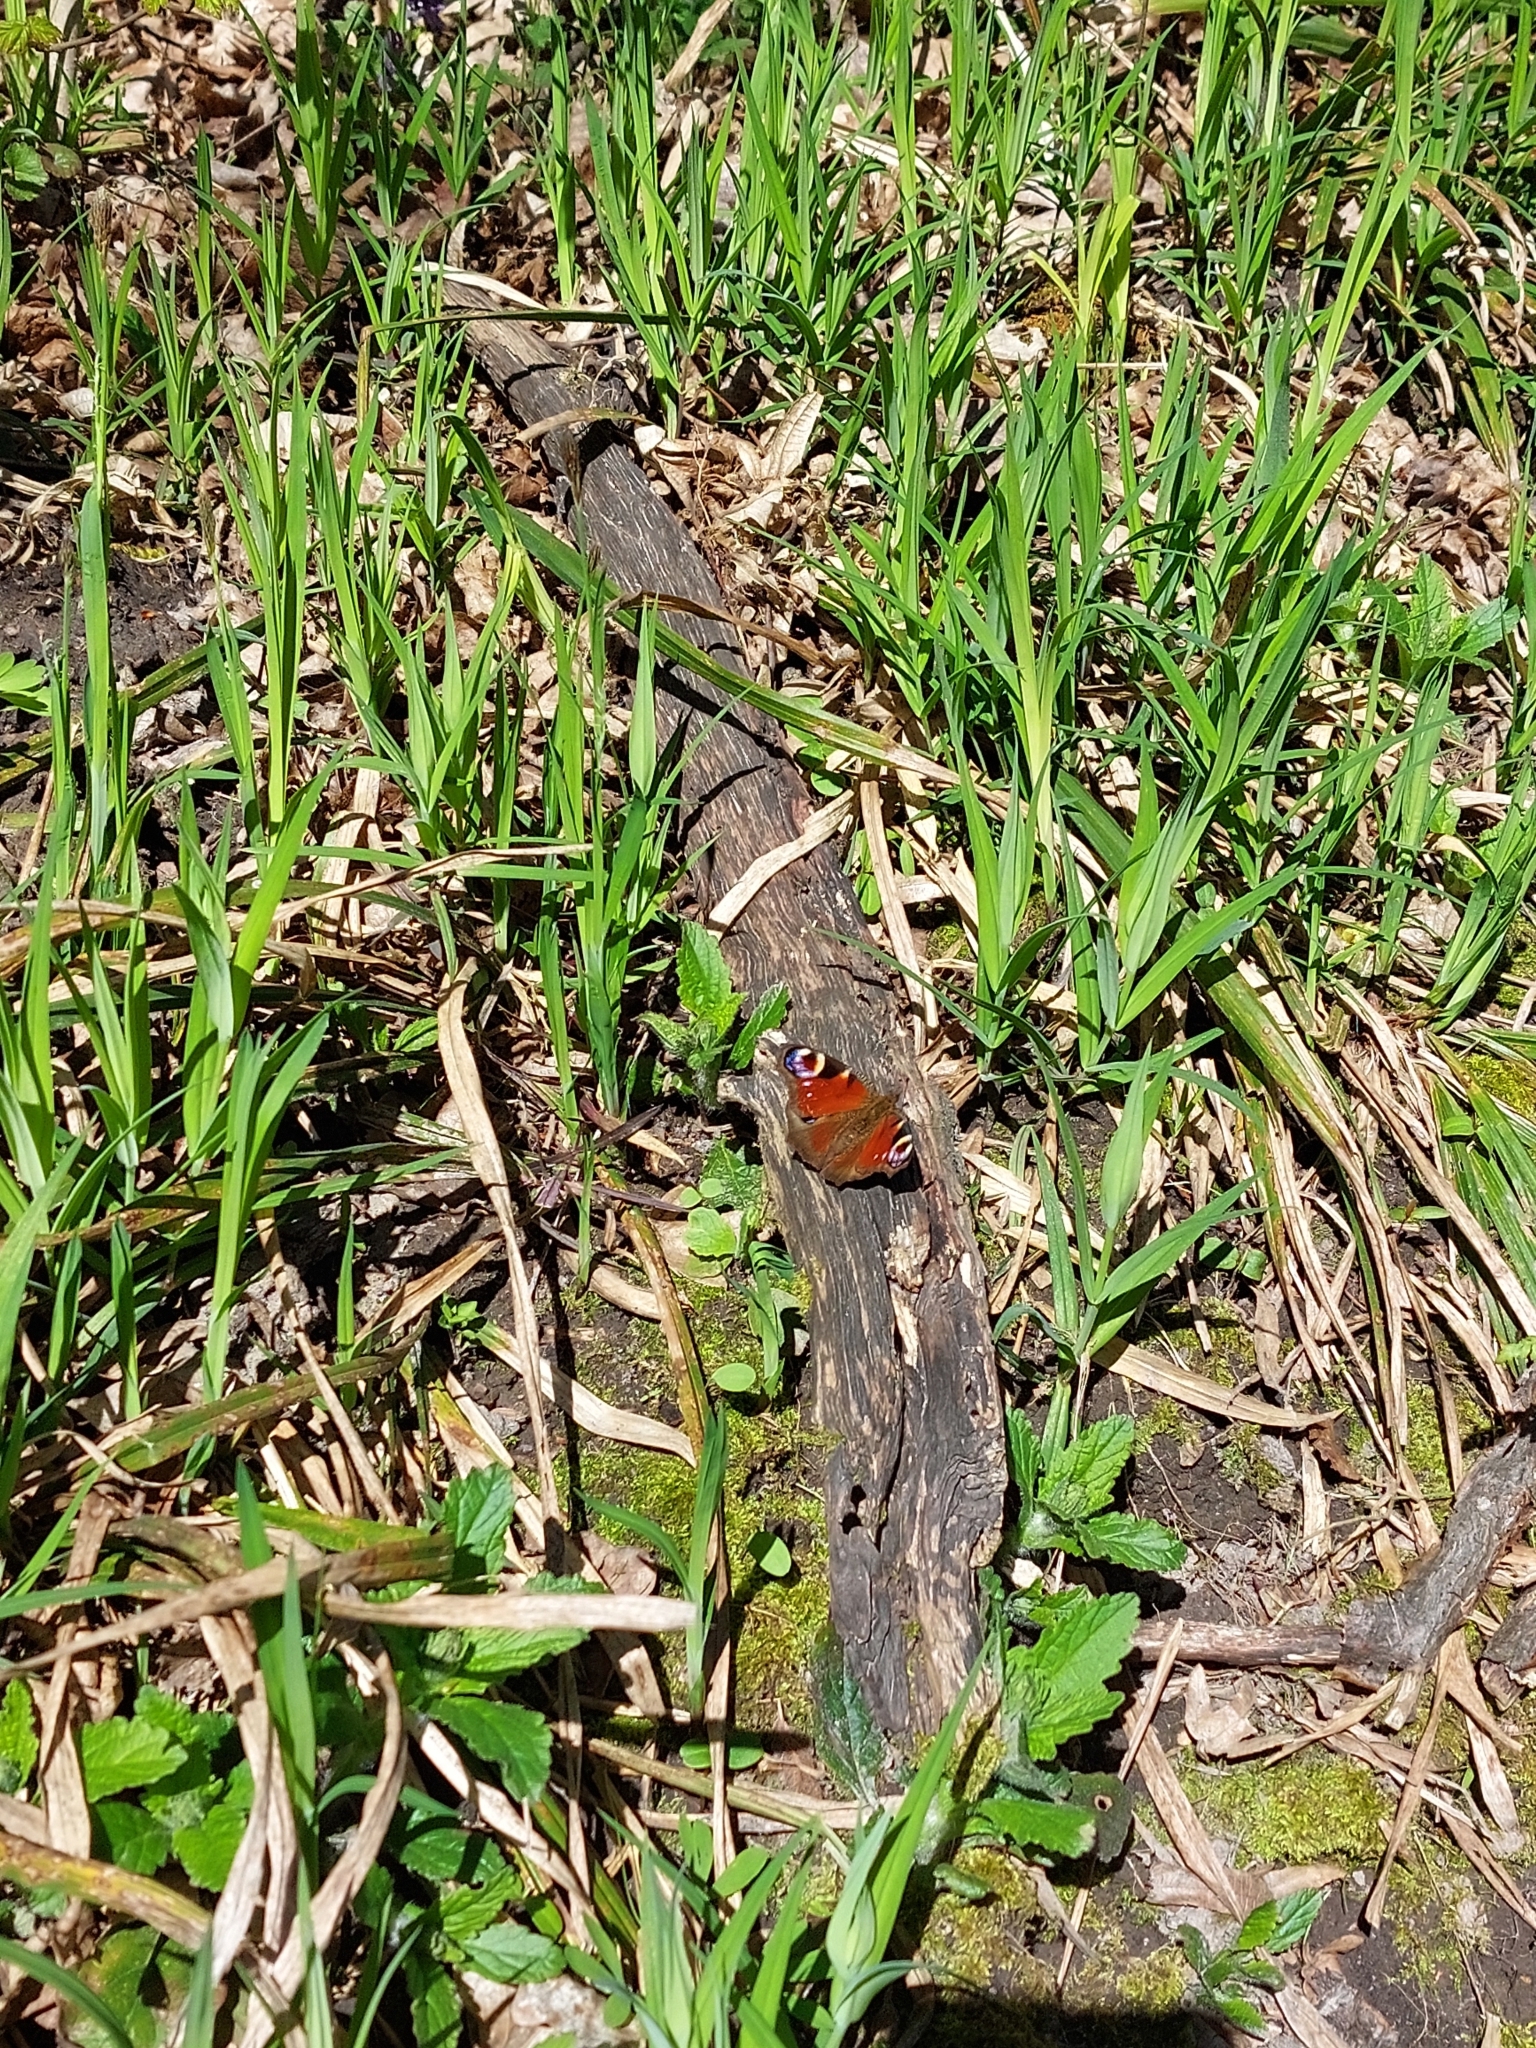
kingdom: Animalia
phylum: Arthropoda
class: Insecta
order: Lepidoptera
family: Nymphalidae
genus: Aglais
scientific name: Aglais io
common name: Peacock
